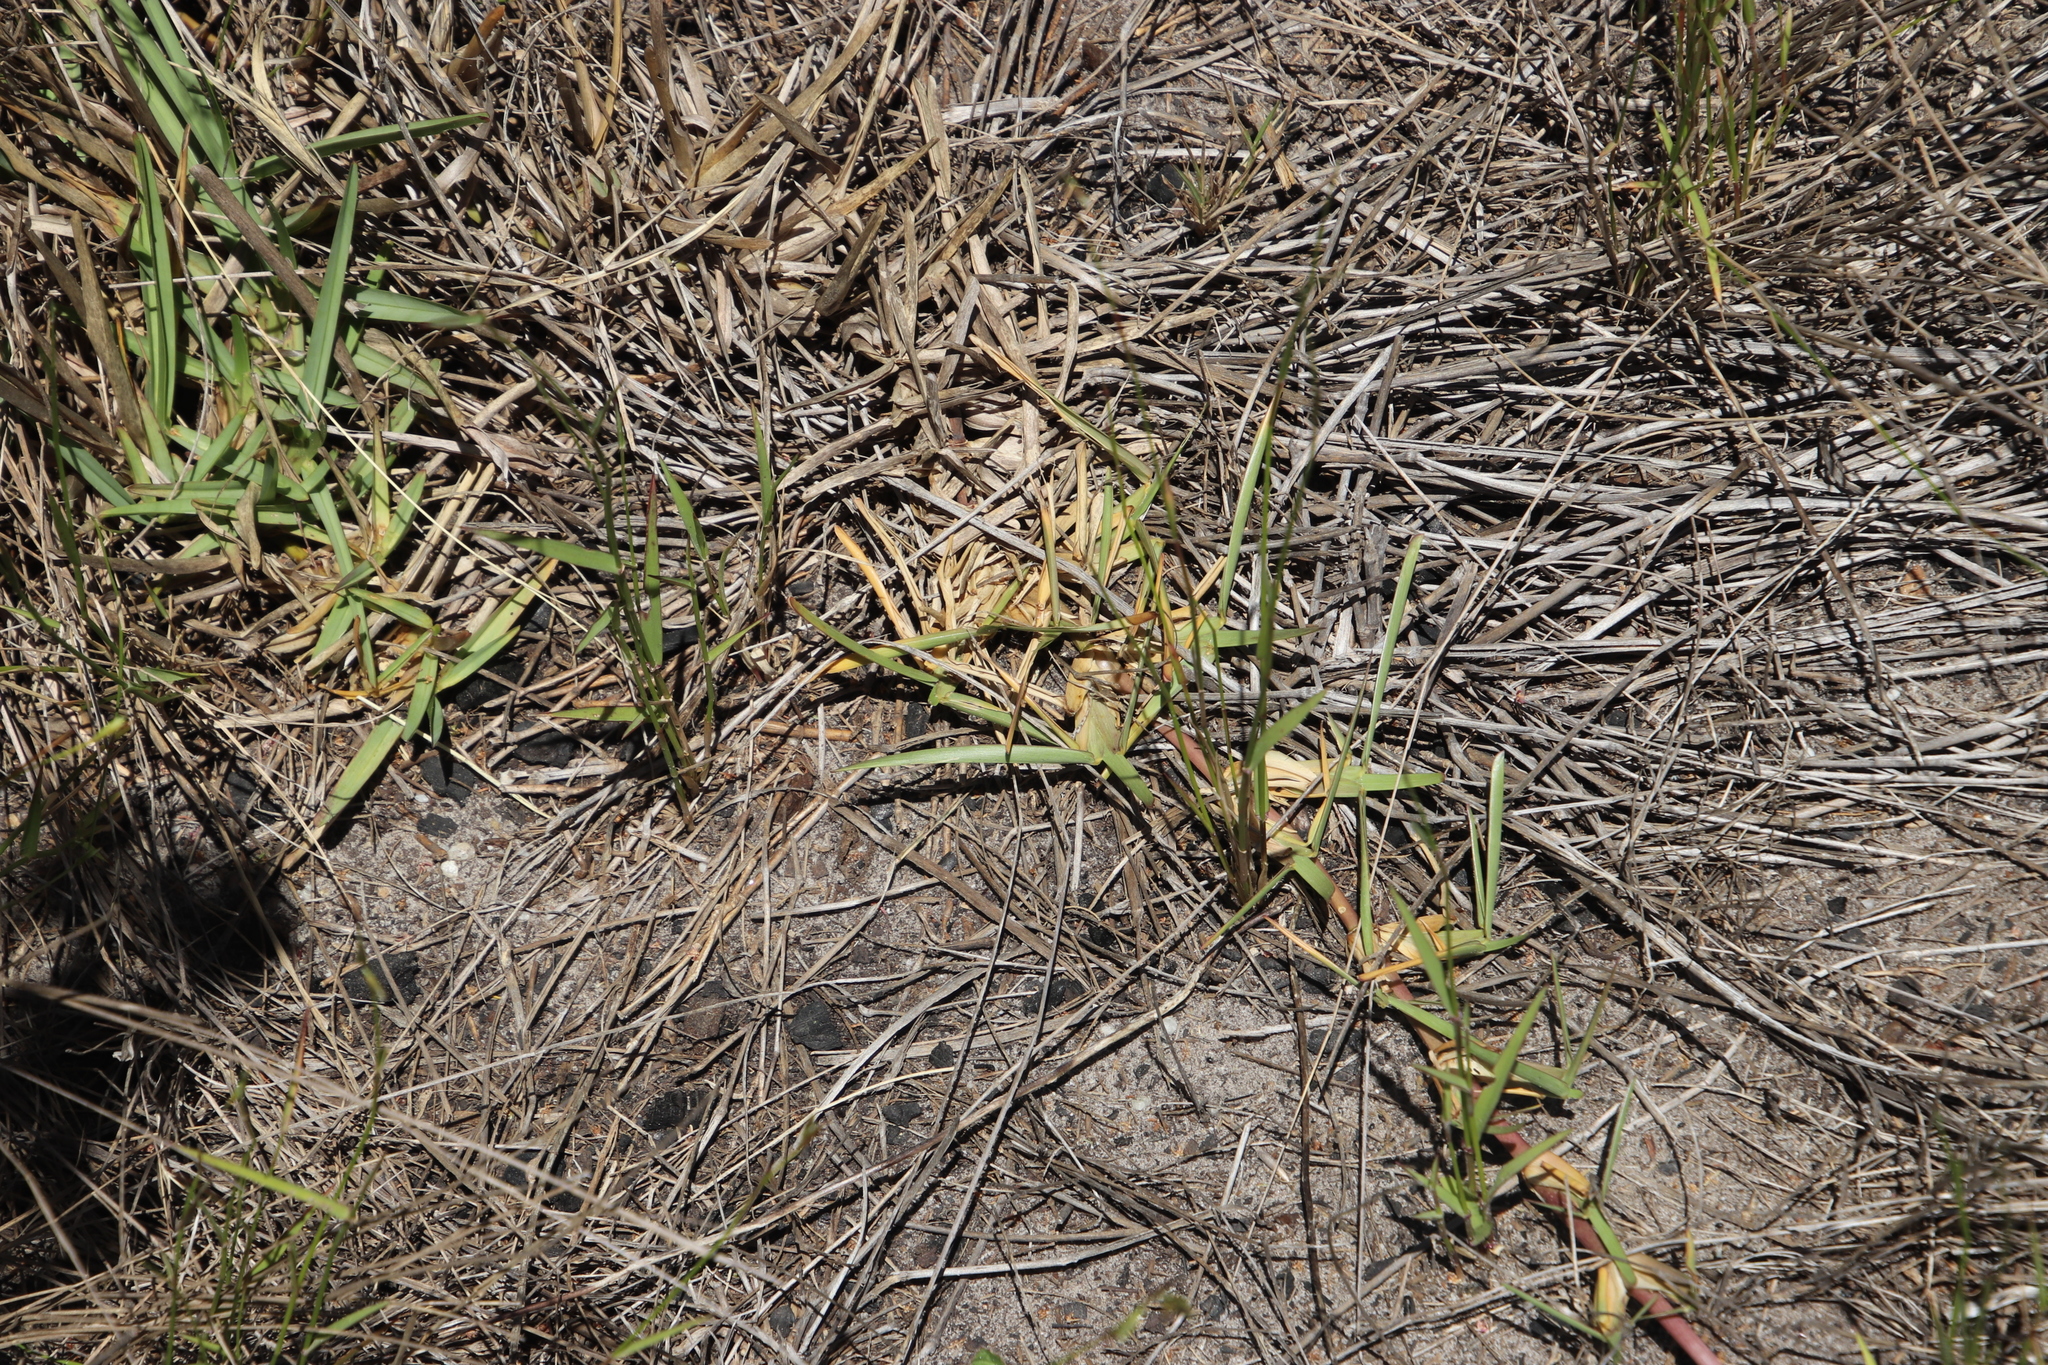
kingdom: Plantae
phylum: Tracheophyta
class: Liliopsida
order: Poales
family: Poaceae
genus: Stenotaphrum
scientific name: Stenotaphrum secundatum
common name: St. augustine grass
